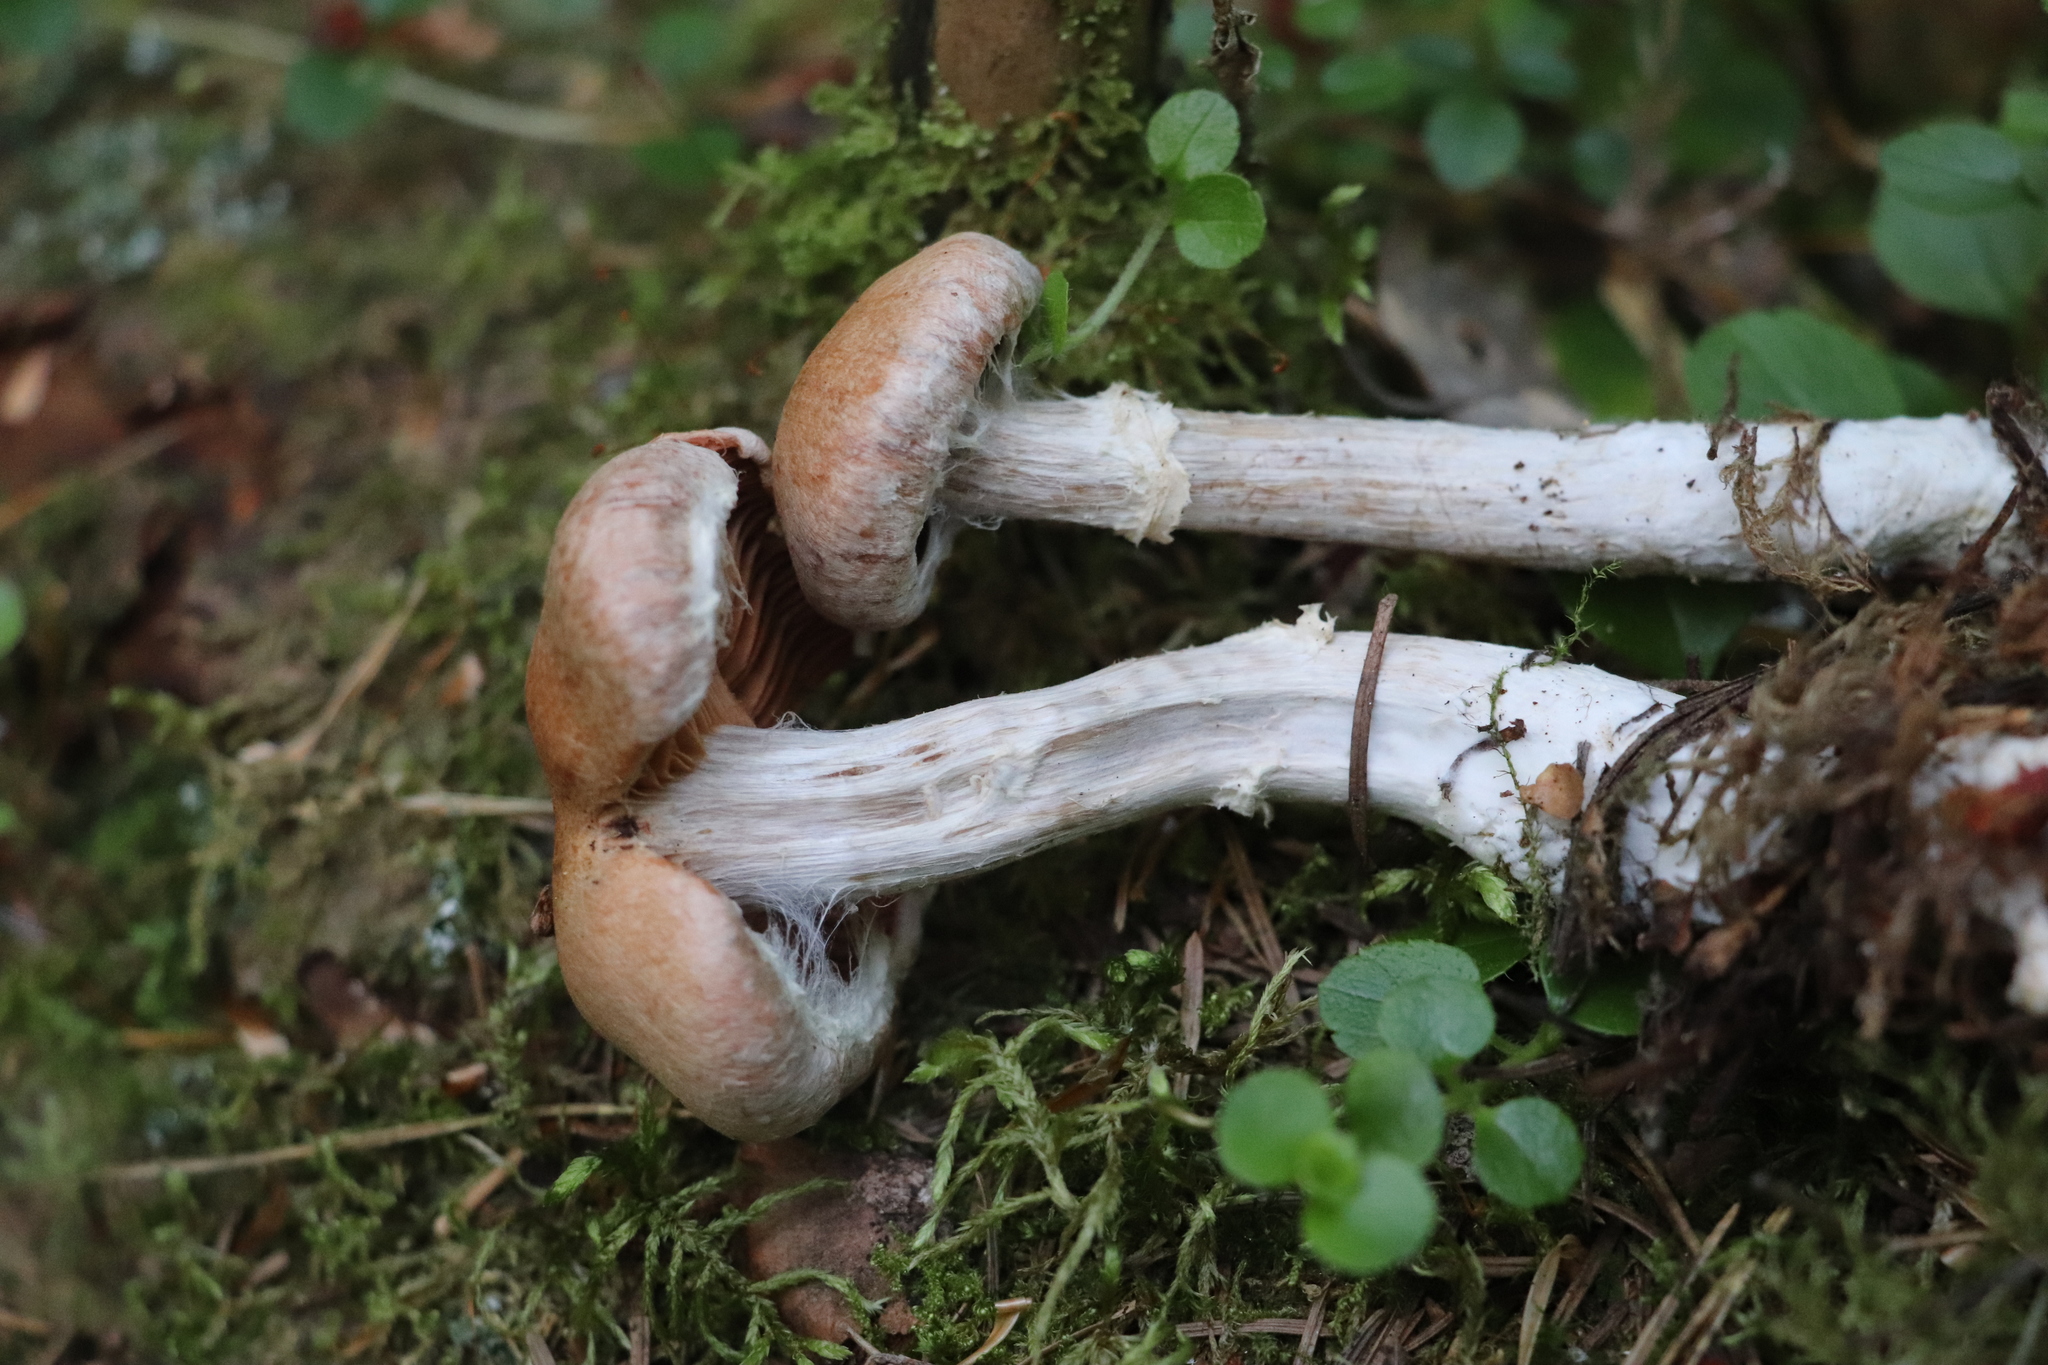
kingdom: Fungi
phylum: Basidiomycota
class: Agaricomycetes
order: Agaricales
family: Cortinariaceae
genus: Cortinarius
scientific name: Cortinarius laniger
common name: Woolly webcap
